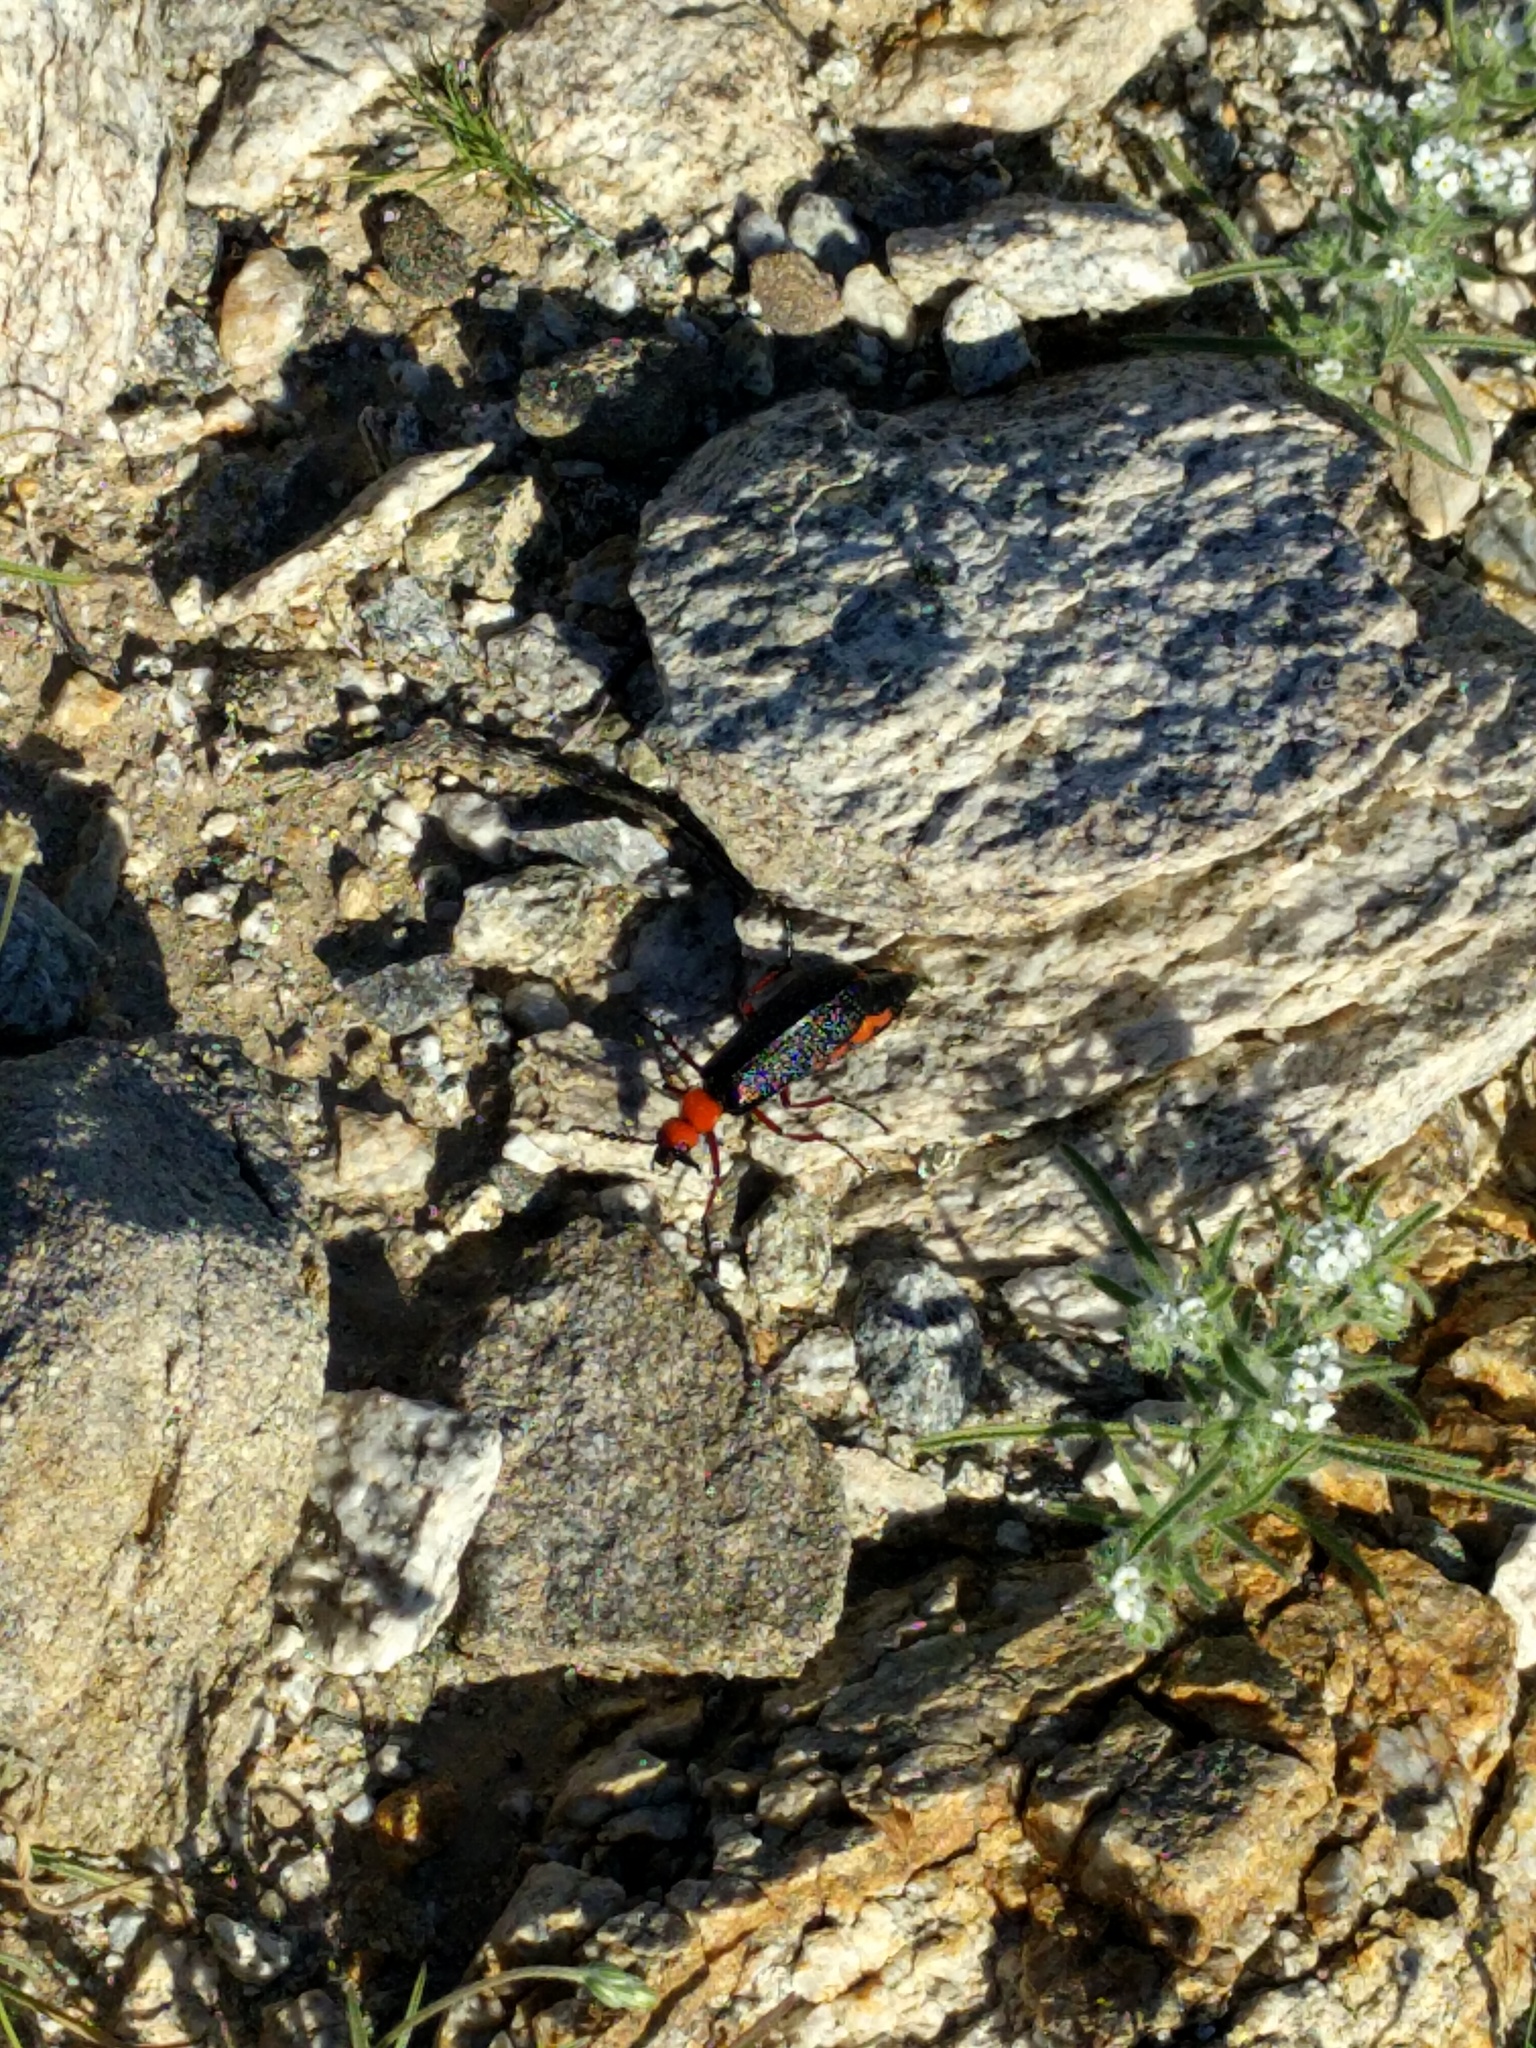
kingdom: Animalia
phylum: Arthropoda
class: Insecta
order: Coleoptera
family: Meloidae
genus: Lytta
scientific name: Lytta magister
